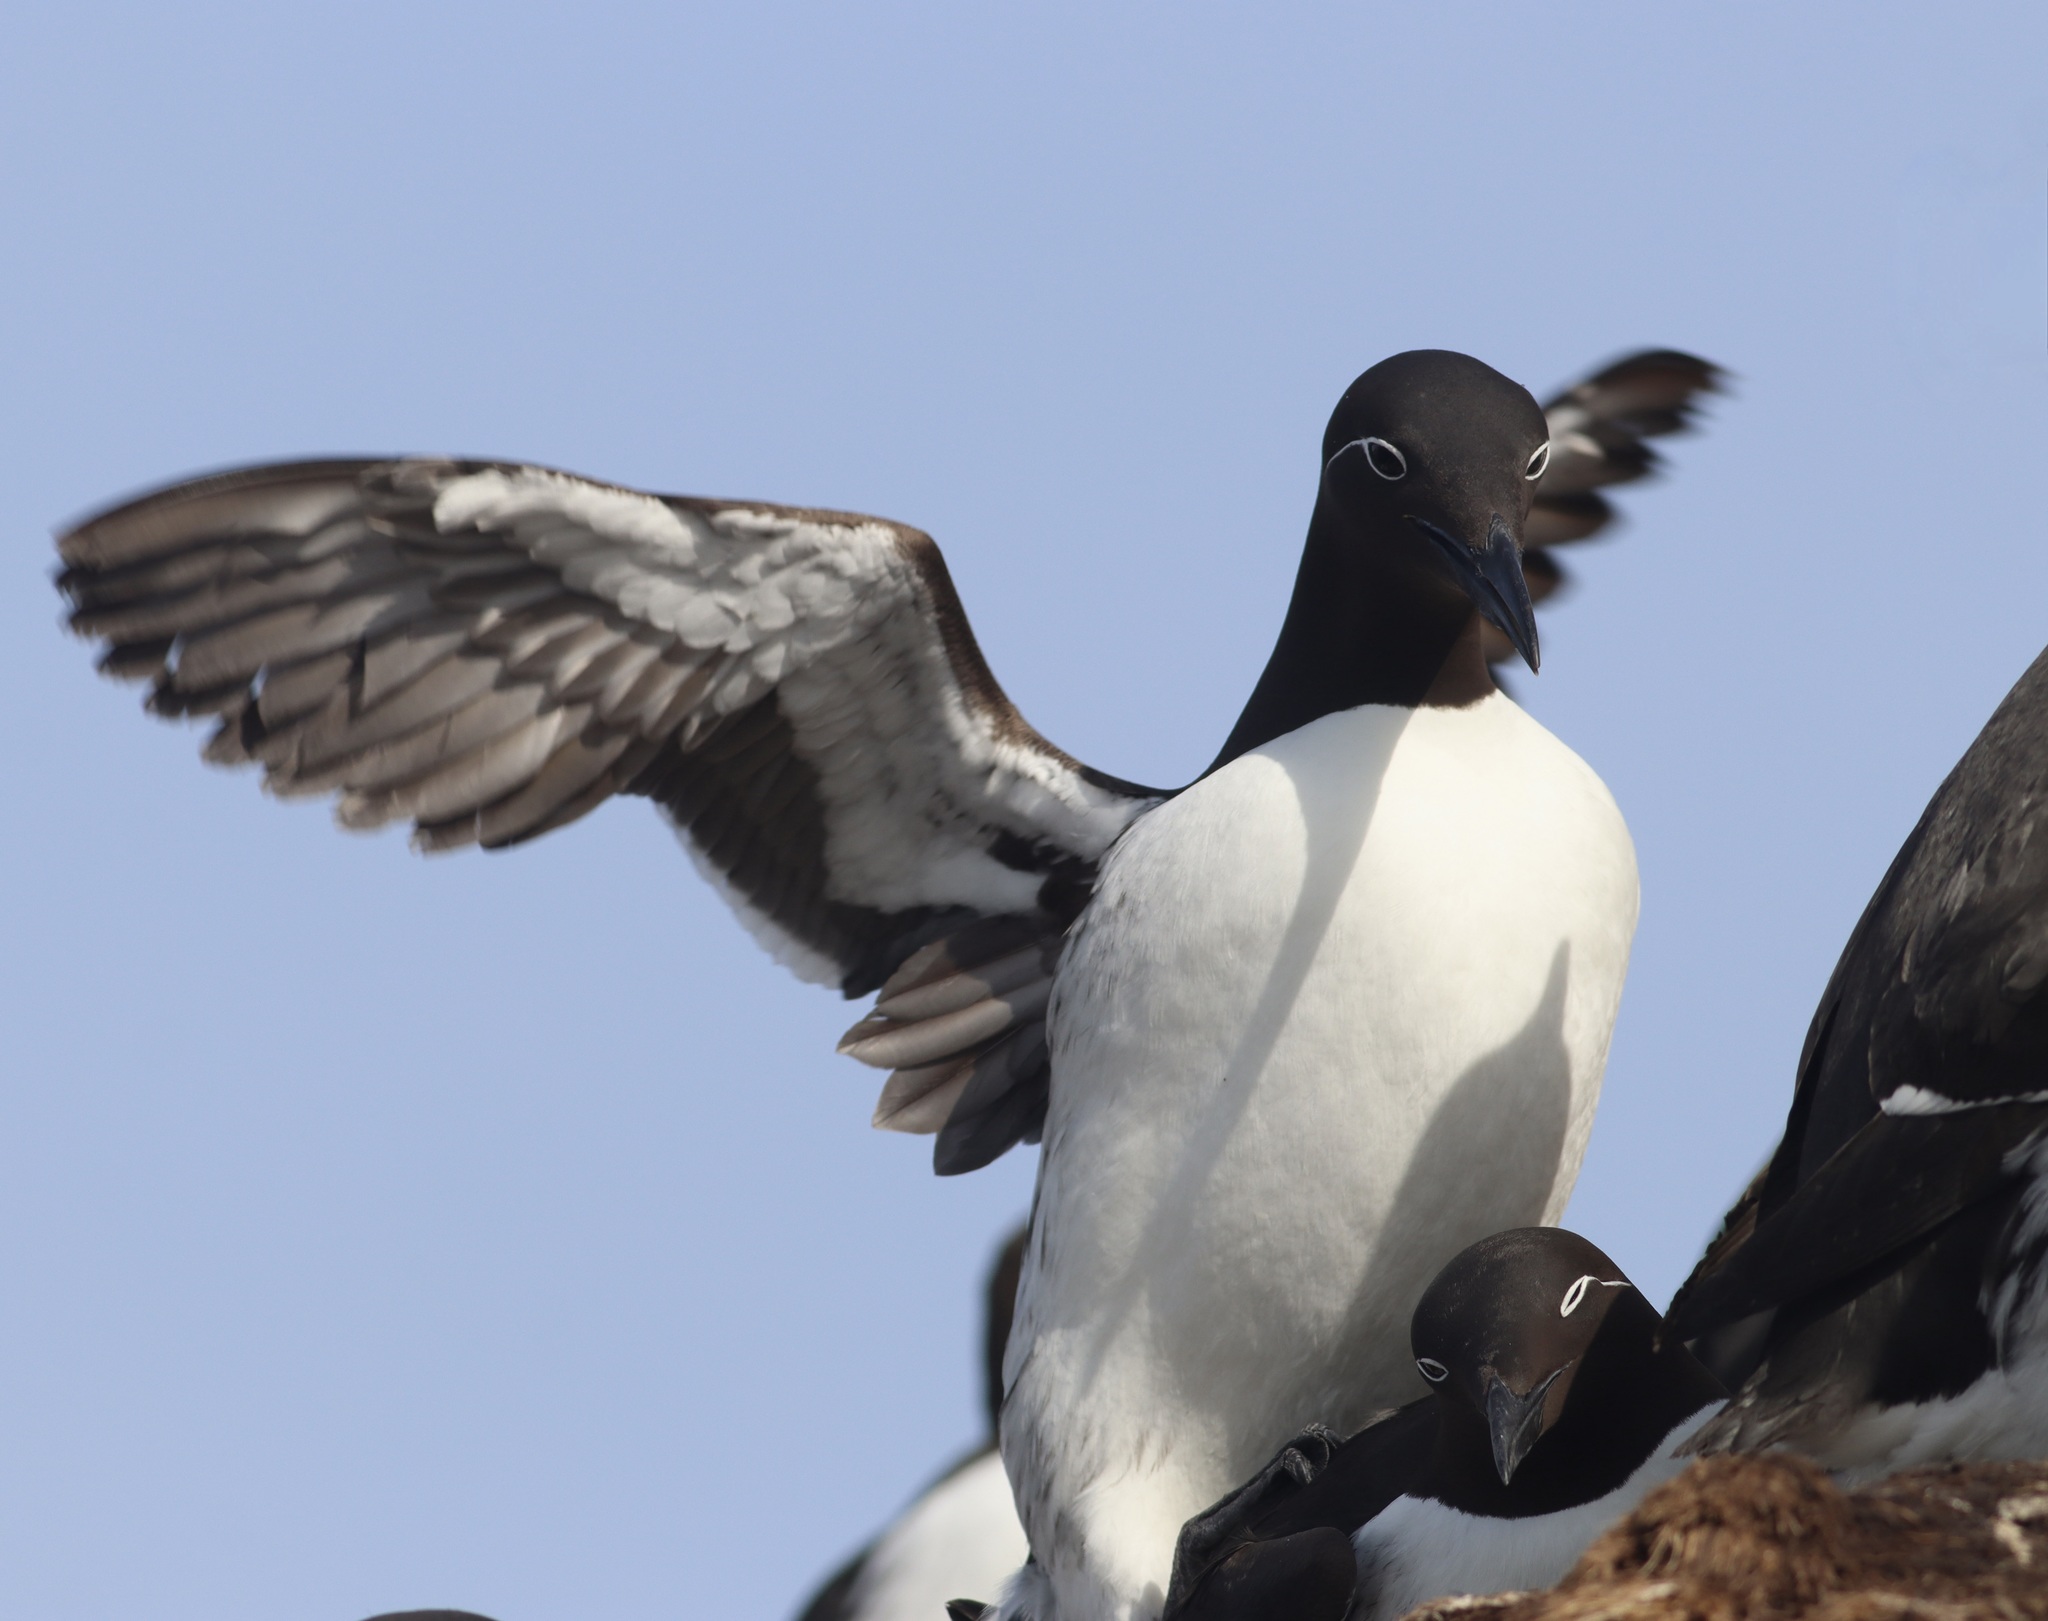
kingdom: Animalia
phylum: Chordata
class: Aves
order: Charadriiformes
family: Alcidae
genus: Uria
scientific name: Uria aalge
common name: Common murre
